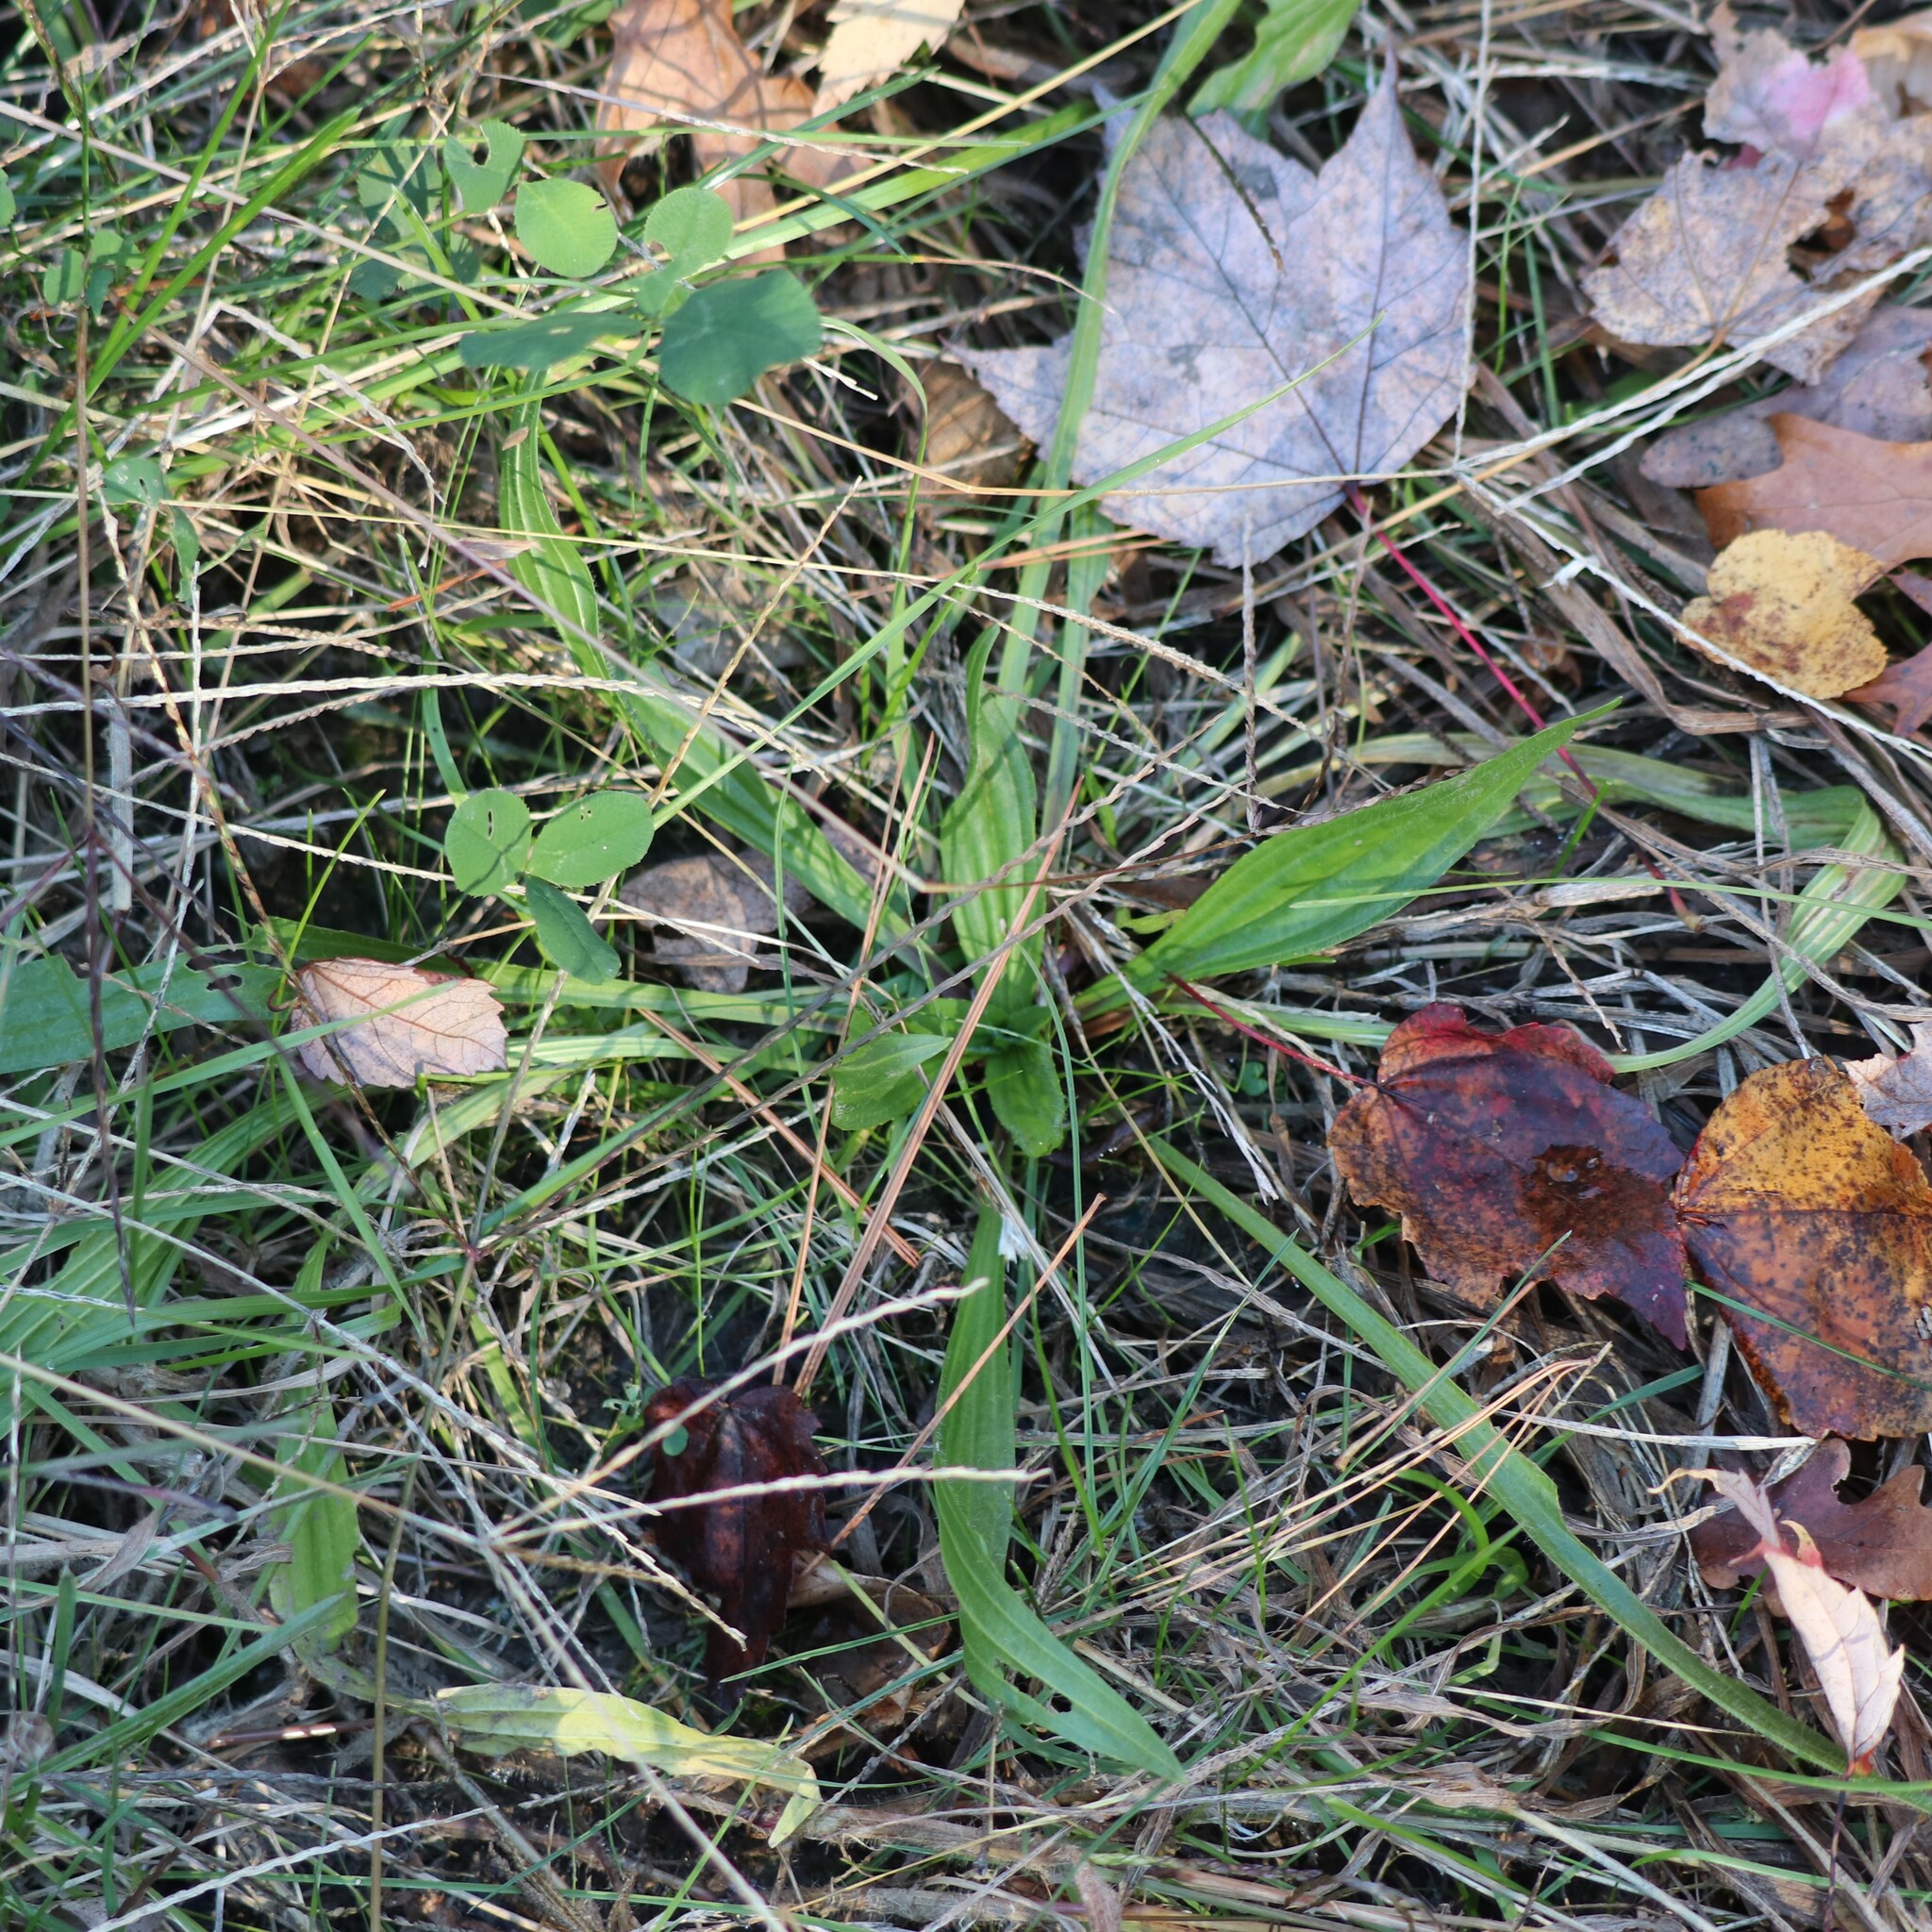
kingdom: Plantae
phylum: Tracheophyta
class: Magnoliopsida
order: Lamiales
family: Plantaginaceae
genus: Plantago
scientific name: Plantago lanceolata
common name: Ribwort plantain
